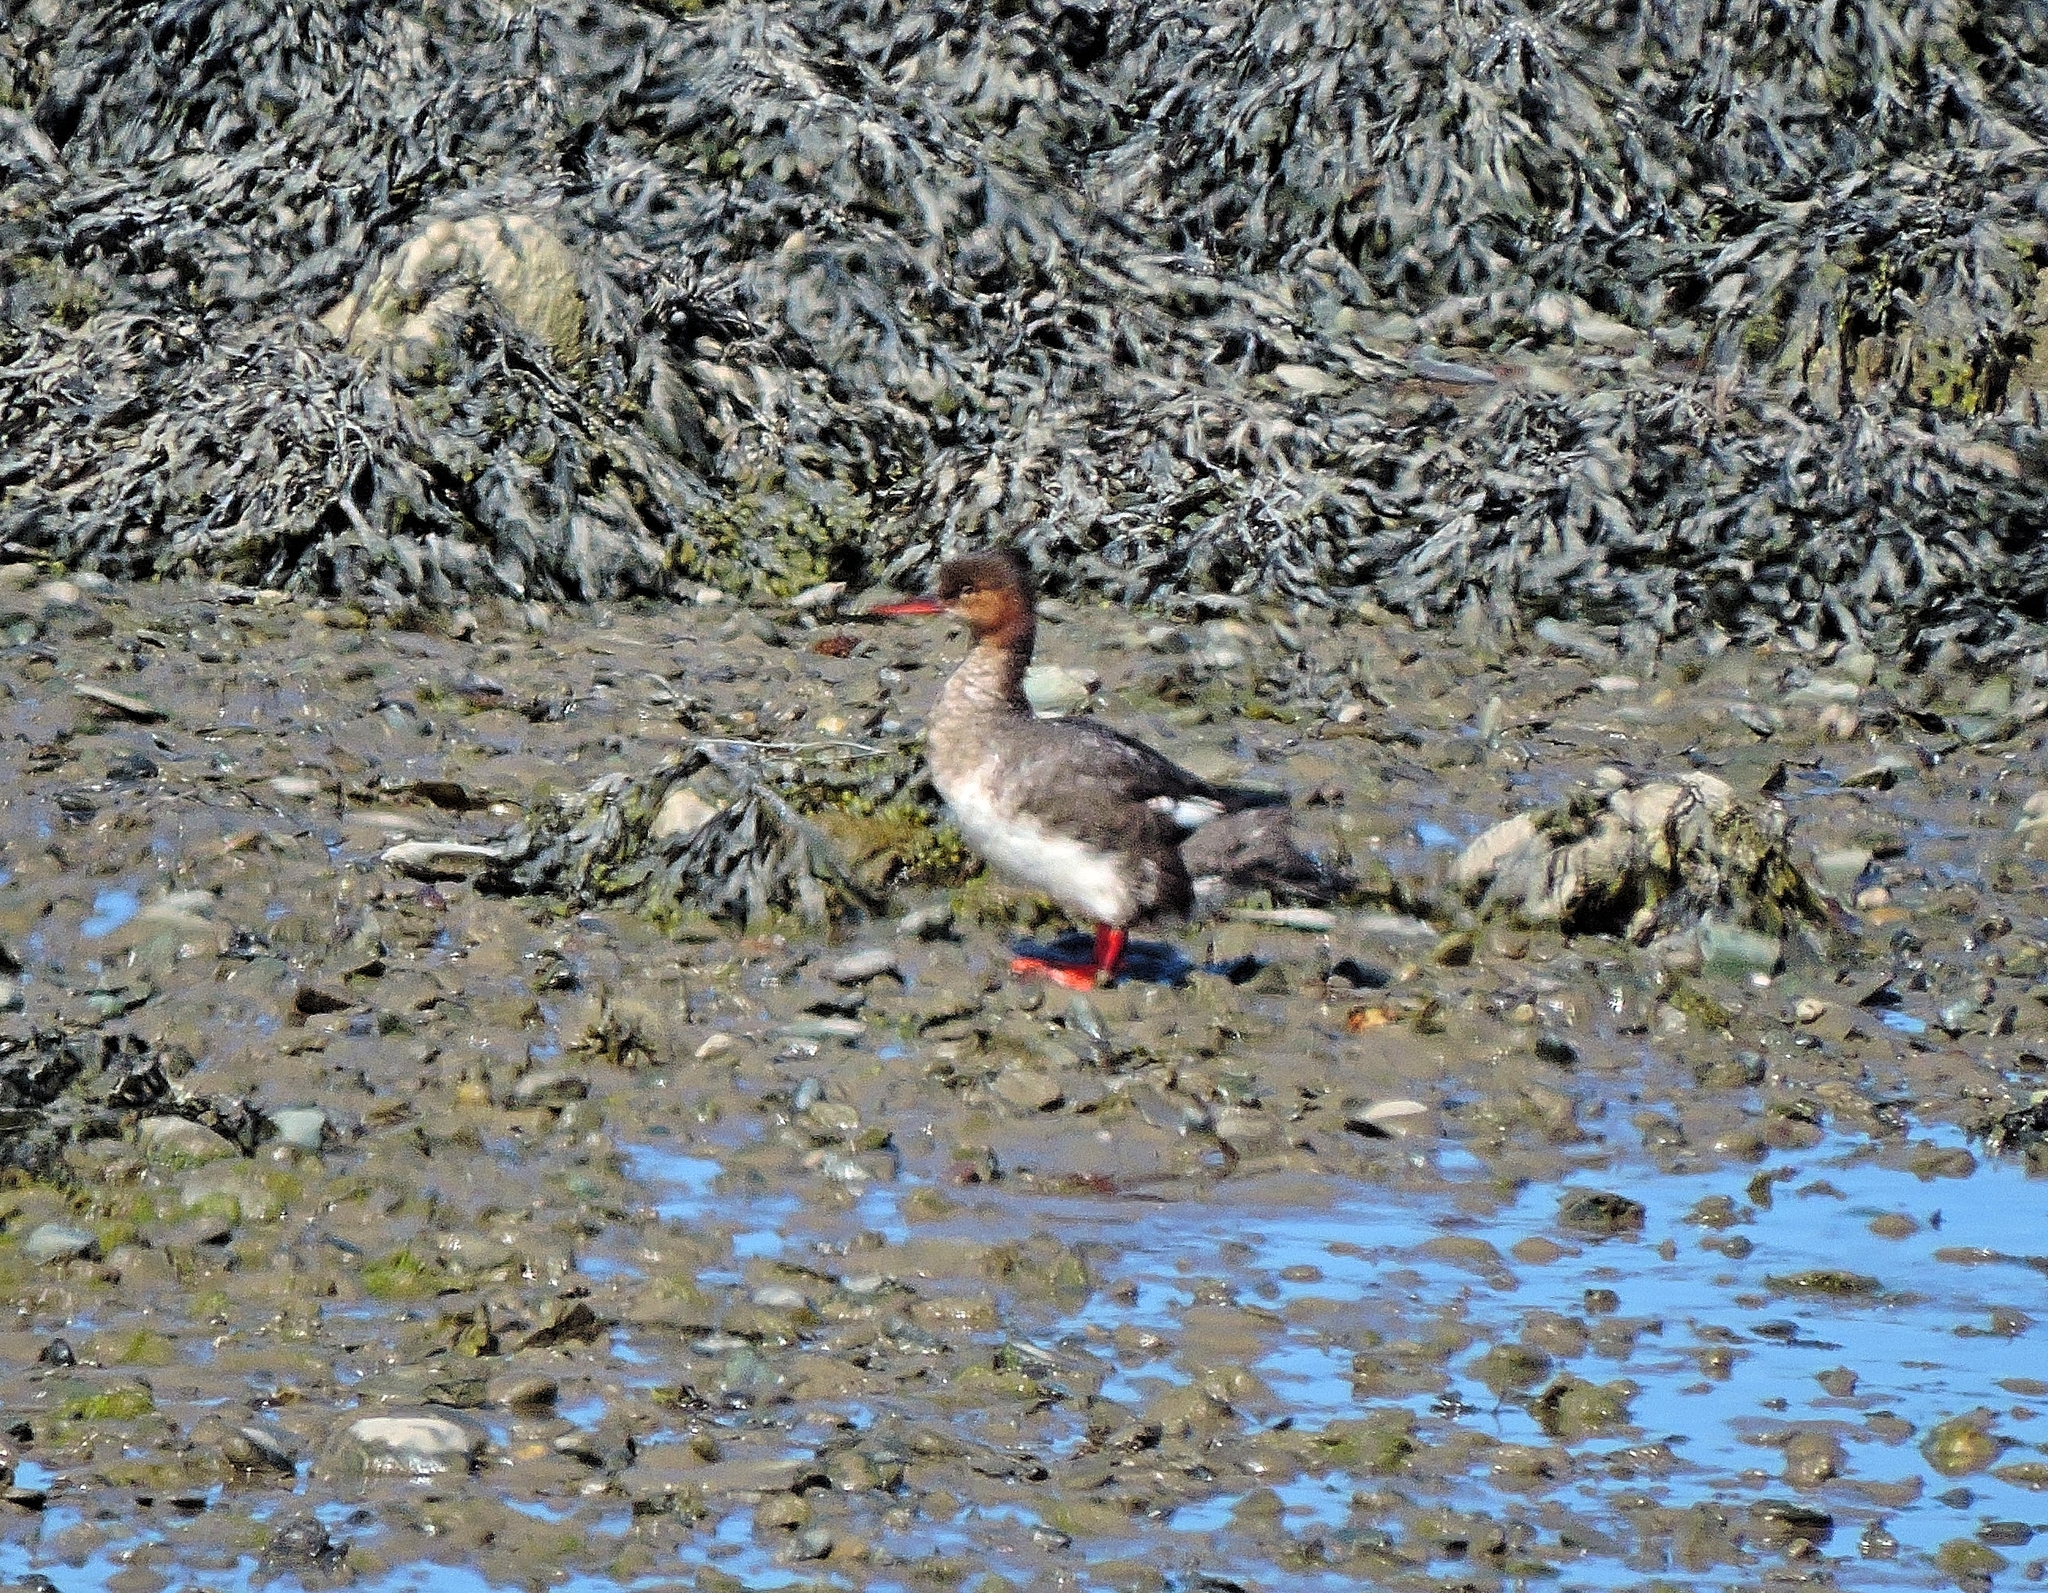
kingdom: Animalia
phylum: Chordata
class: Aves
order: Anseriformes
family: Anatidae
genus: Mergus
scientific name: Mergus serrator
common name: Red-breasted merganser
